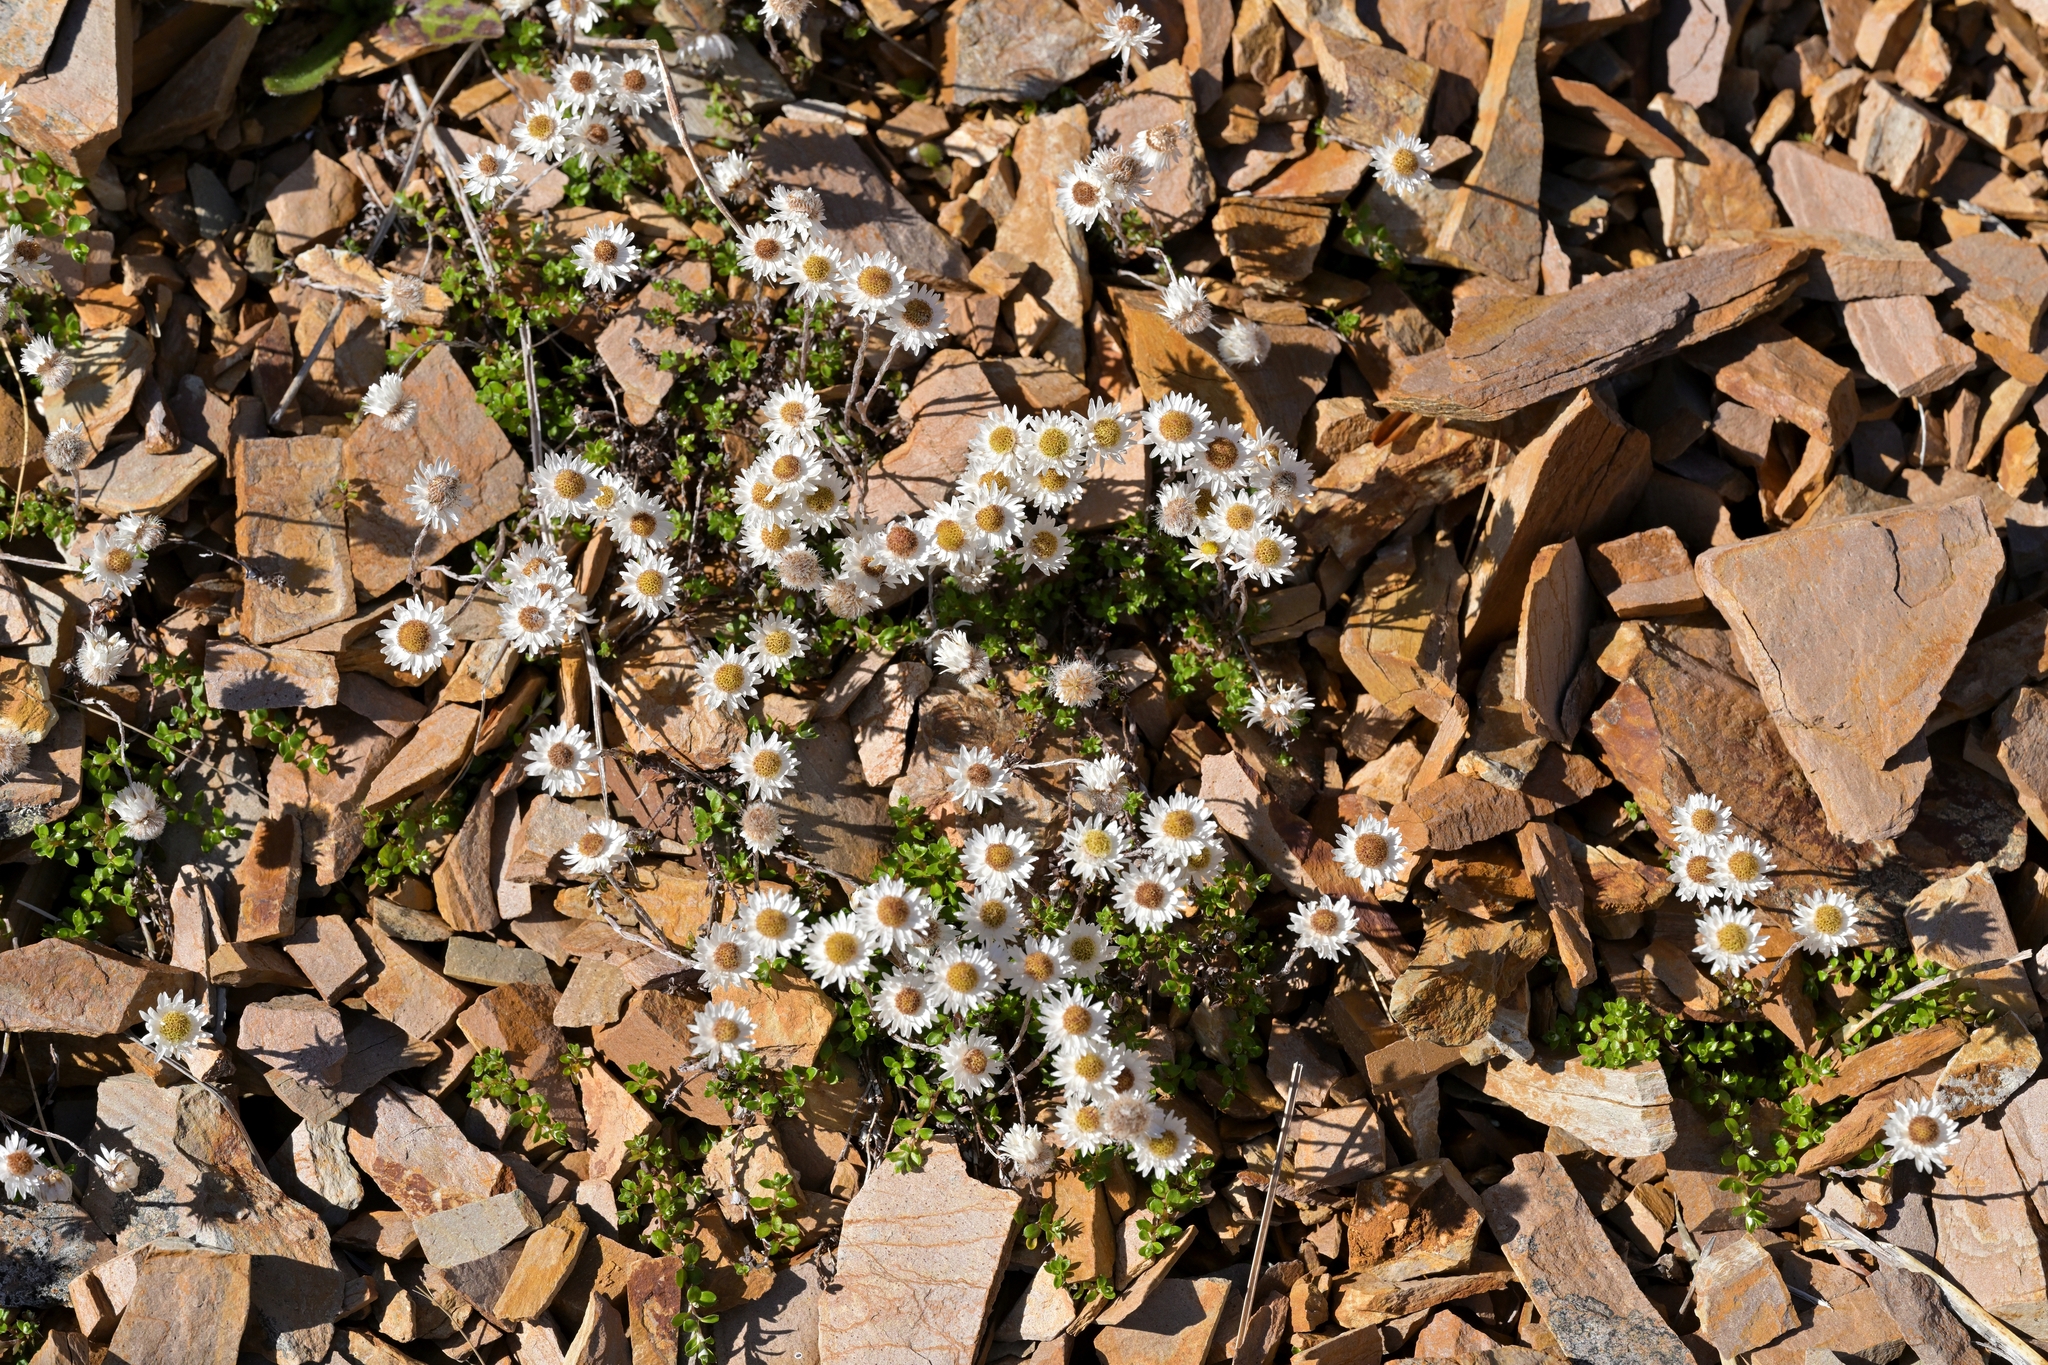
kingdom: Plantae
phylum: Tracheophyta
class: Magnoliopsida
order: Asterales
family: Asteraceae
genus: Anaphalioides
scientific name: Anaphalioides bellidioides
